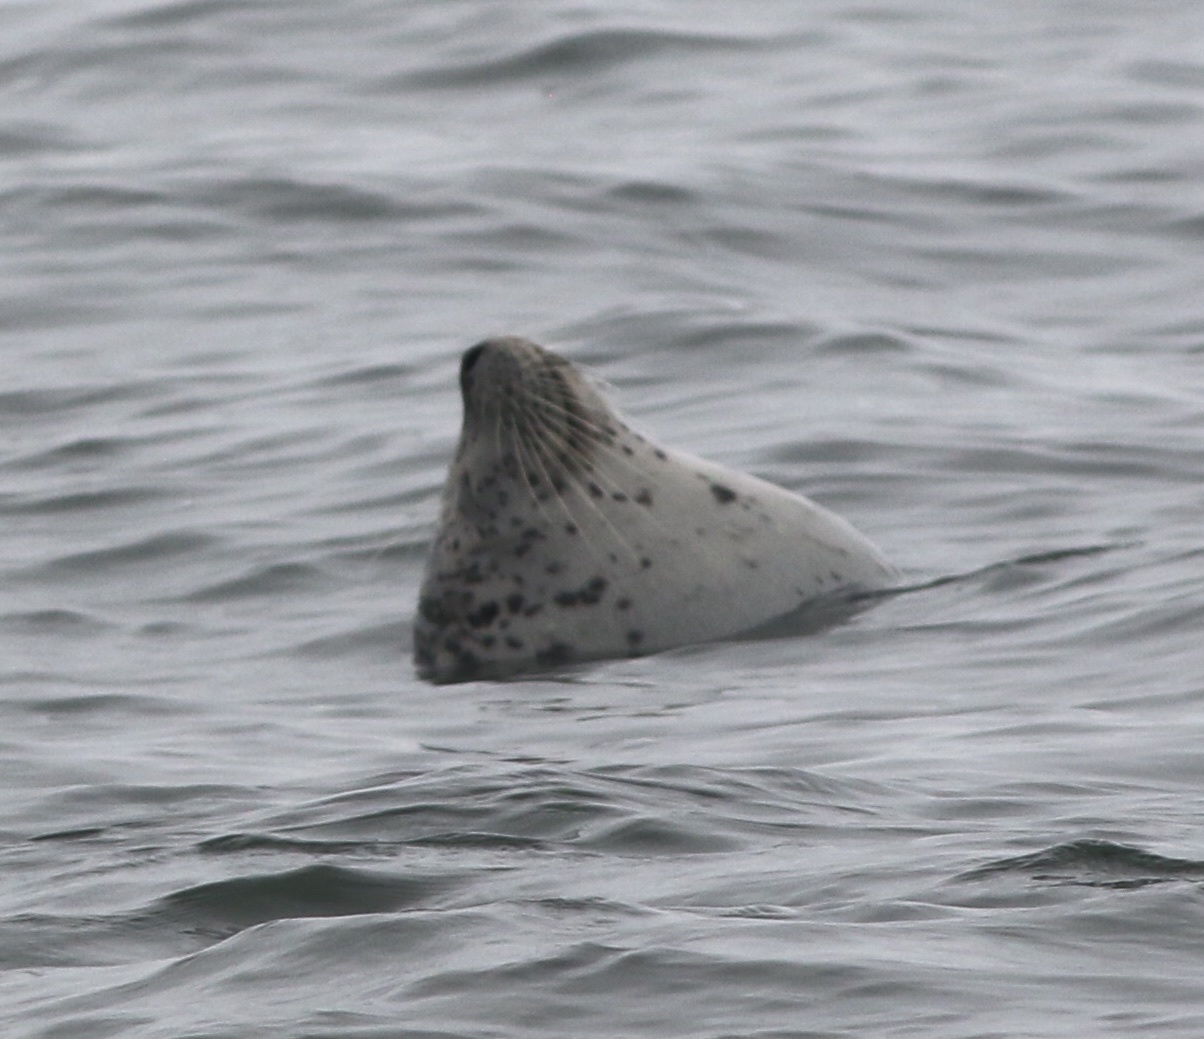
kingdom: Animalia
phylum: Chordata
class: Mammalia
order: Carnivora
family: Phocidae
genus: Phoca
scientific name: Phoca vitulina
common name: Harbor seal
